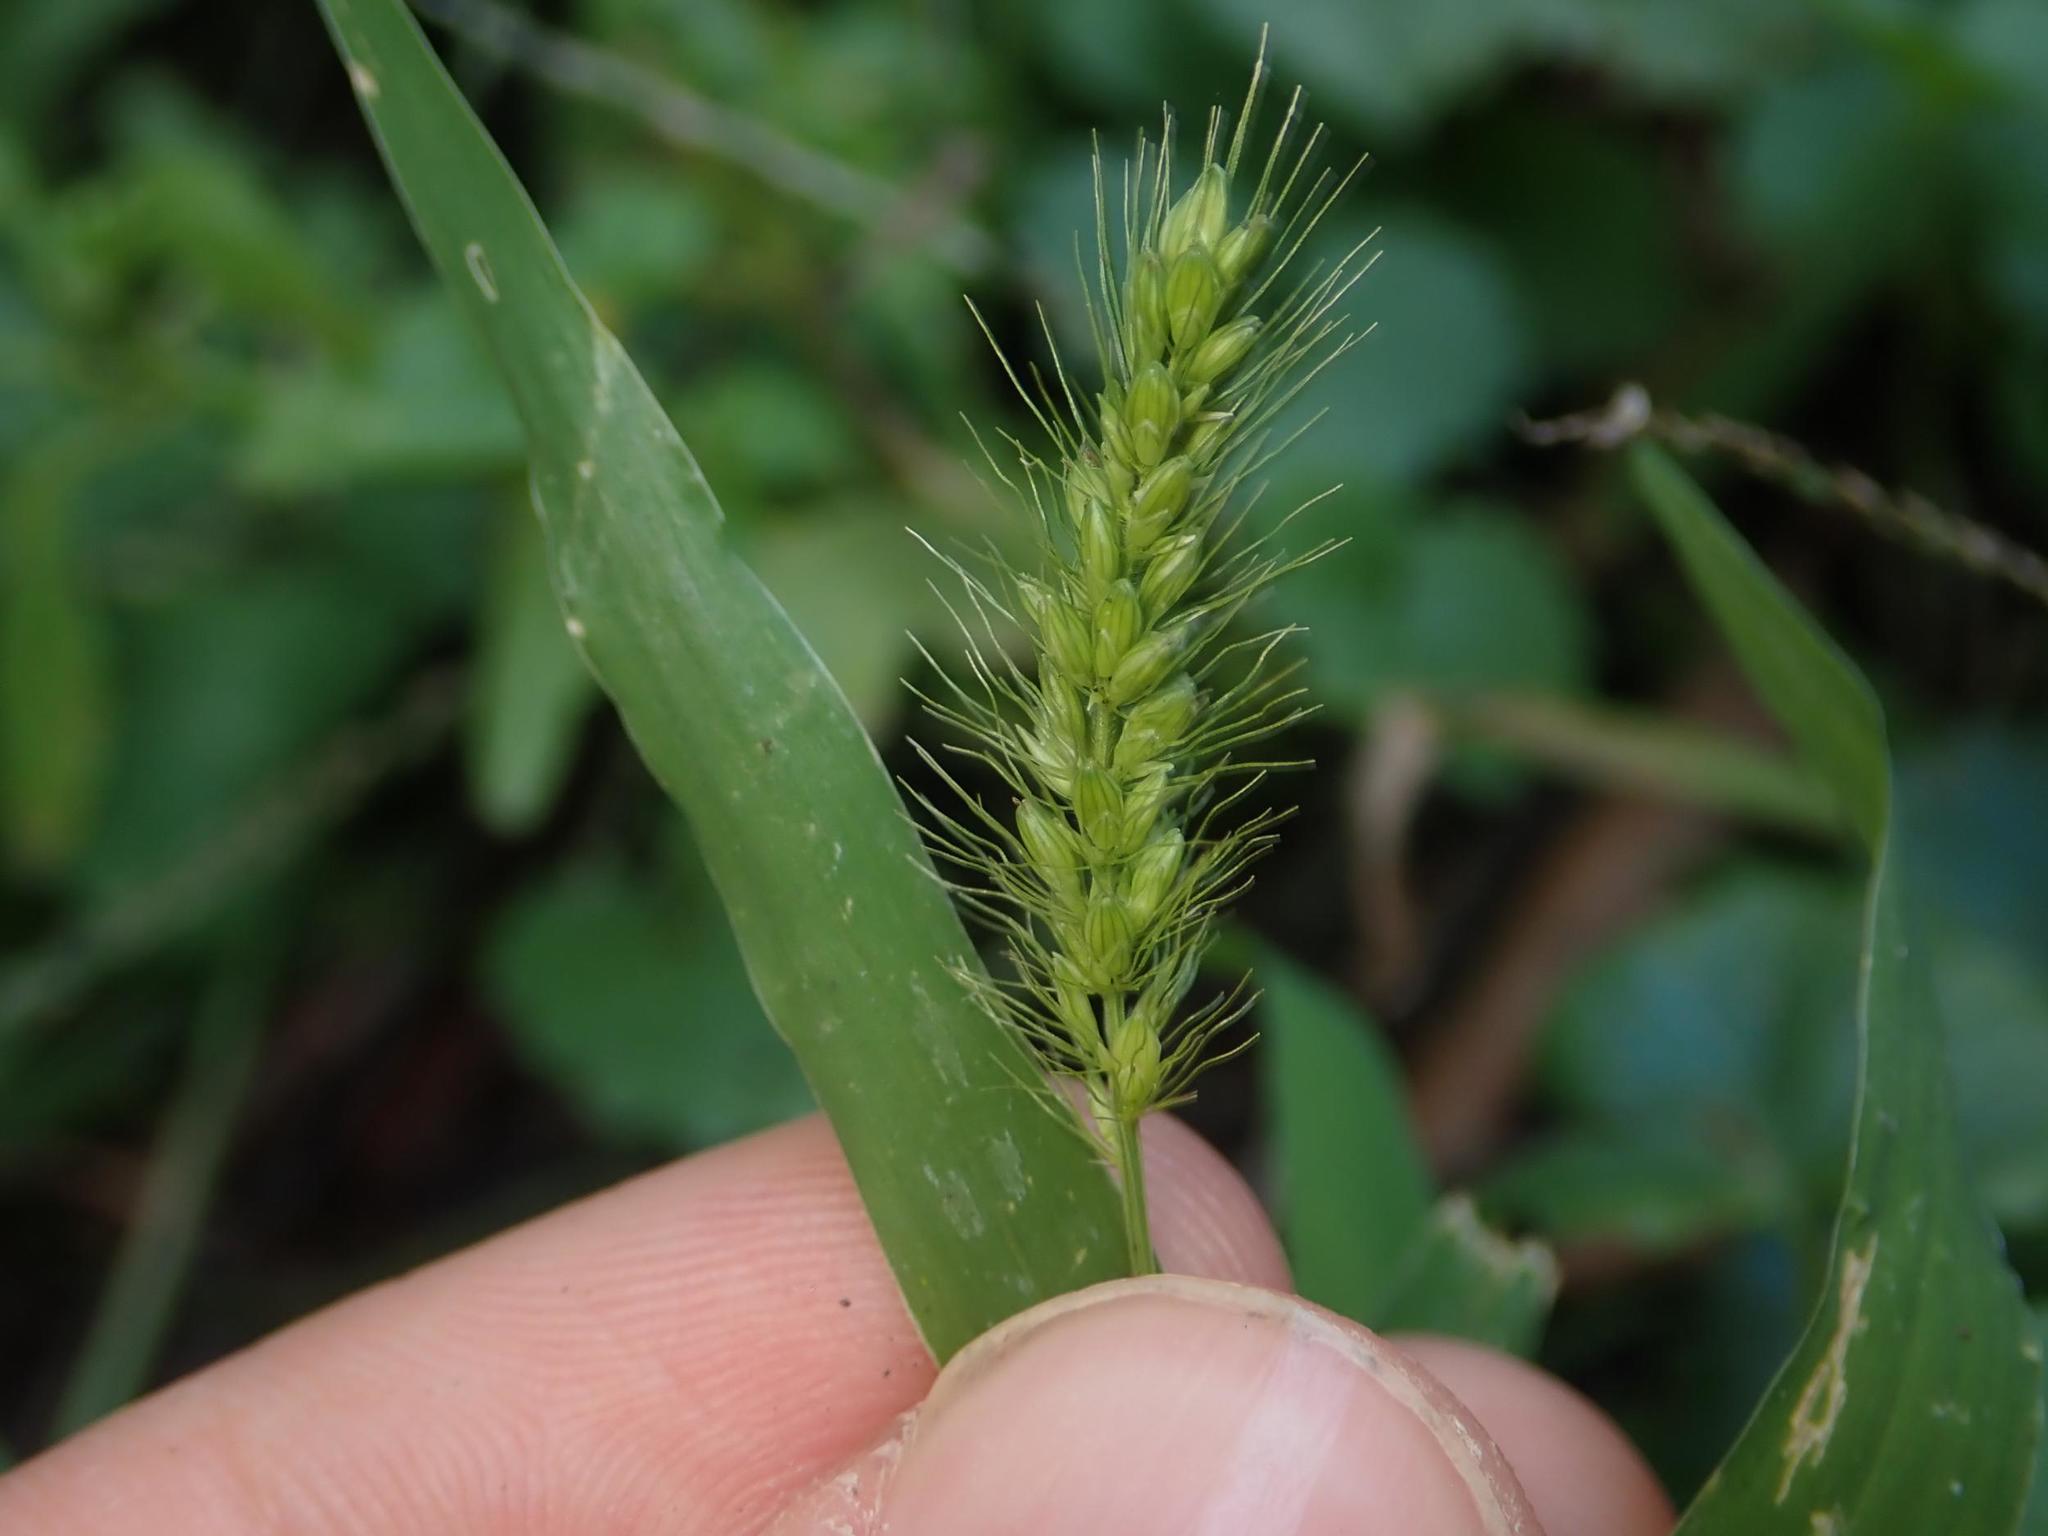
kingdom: Plantae
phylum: Tracheophyta
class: Liliopsida
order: Poales
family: Poaceae
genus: Setaria
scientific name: Setaria viridis
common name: Green bristlegrass
